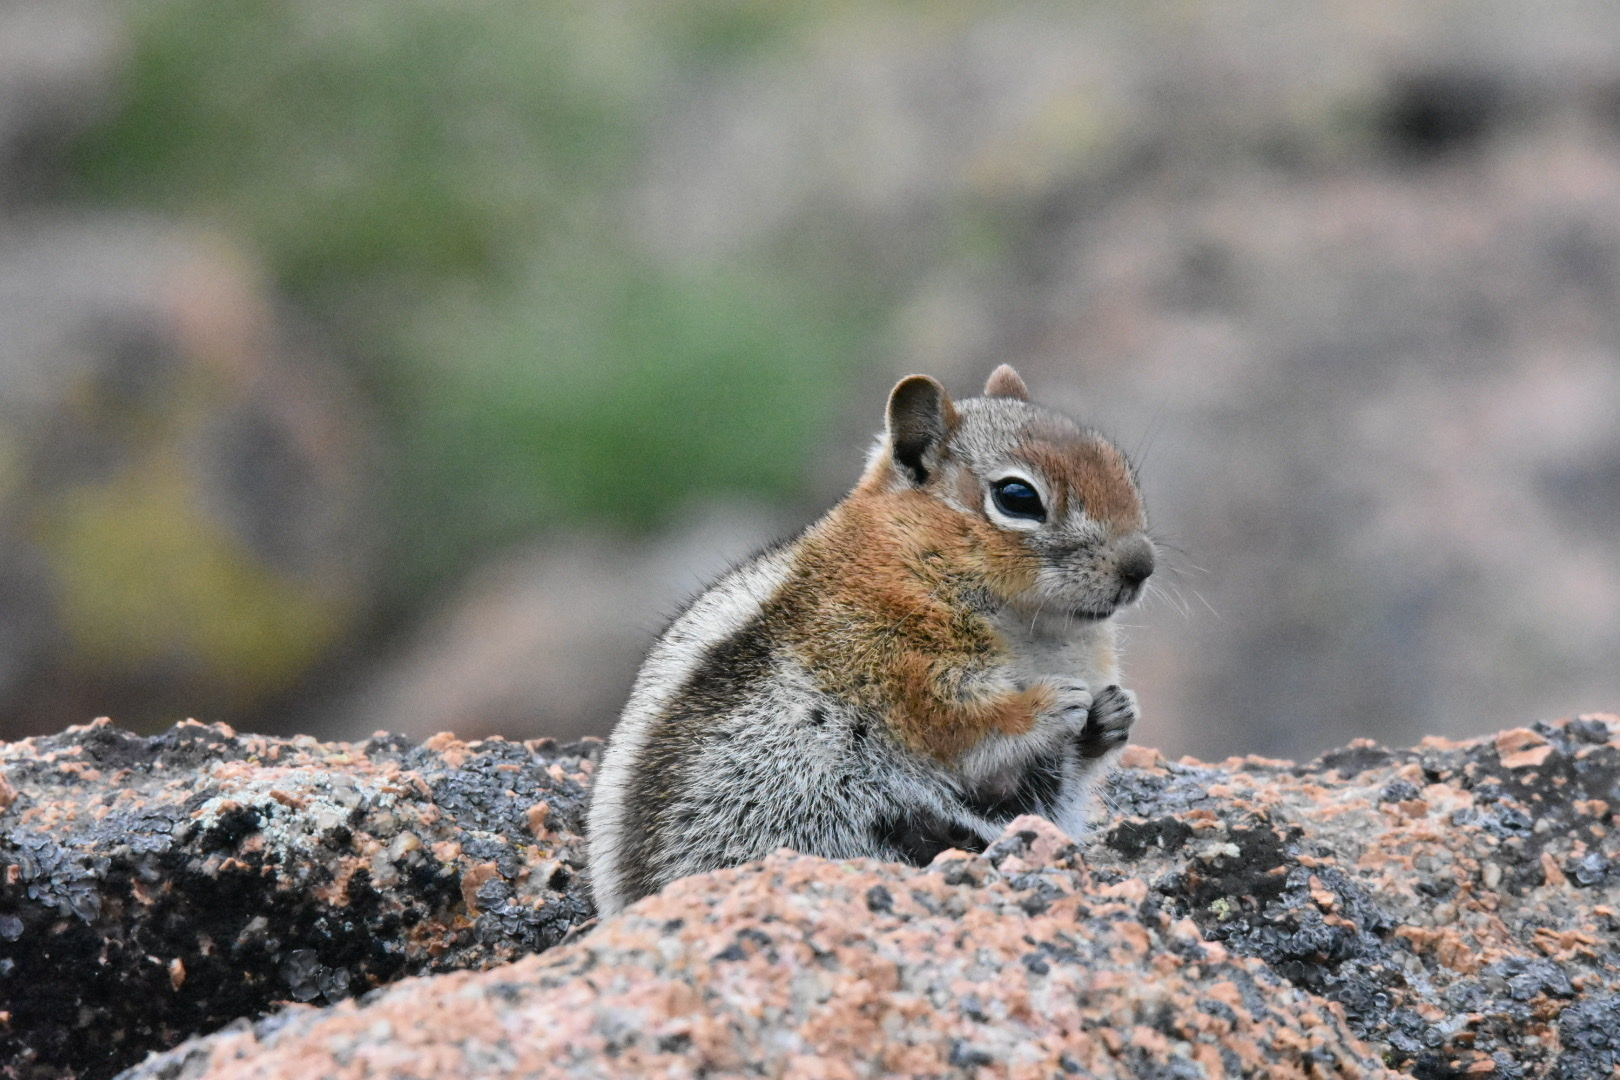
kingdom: Animalia
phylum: Chordata
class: Mammalia
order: Rodentia
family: Sciuridae
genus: Callospermophilus
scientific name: Callospermophilus lateralis
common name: Golden-mantled ground squirrel
